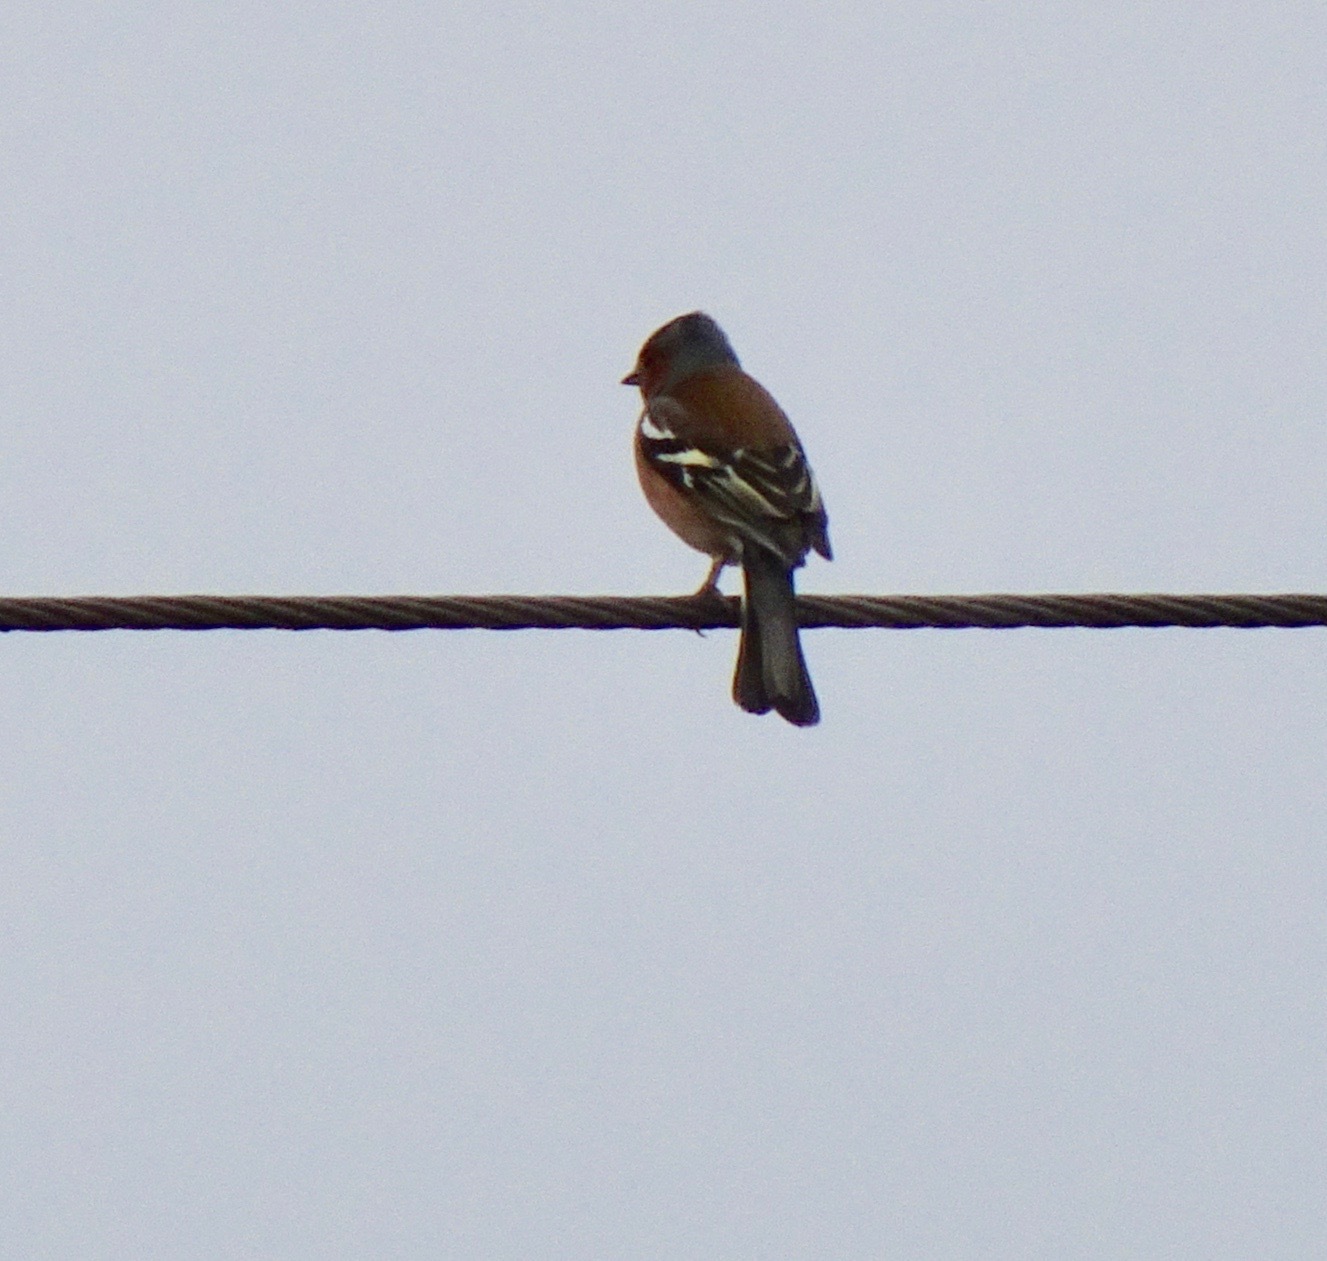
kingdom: Animalia
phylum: Chordata
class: Aves
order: Passeriformes
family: Fringillidae
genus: Fringilla
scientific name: Fringilla coelebs
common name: Common chaffinch
